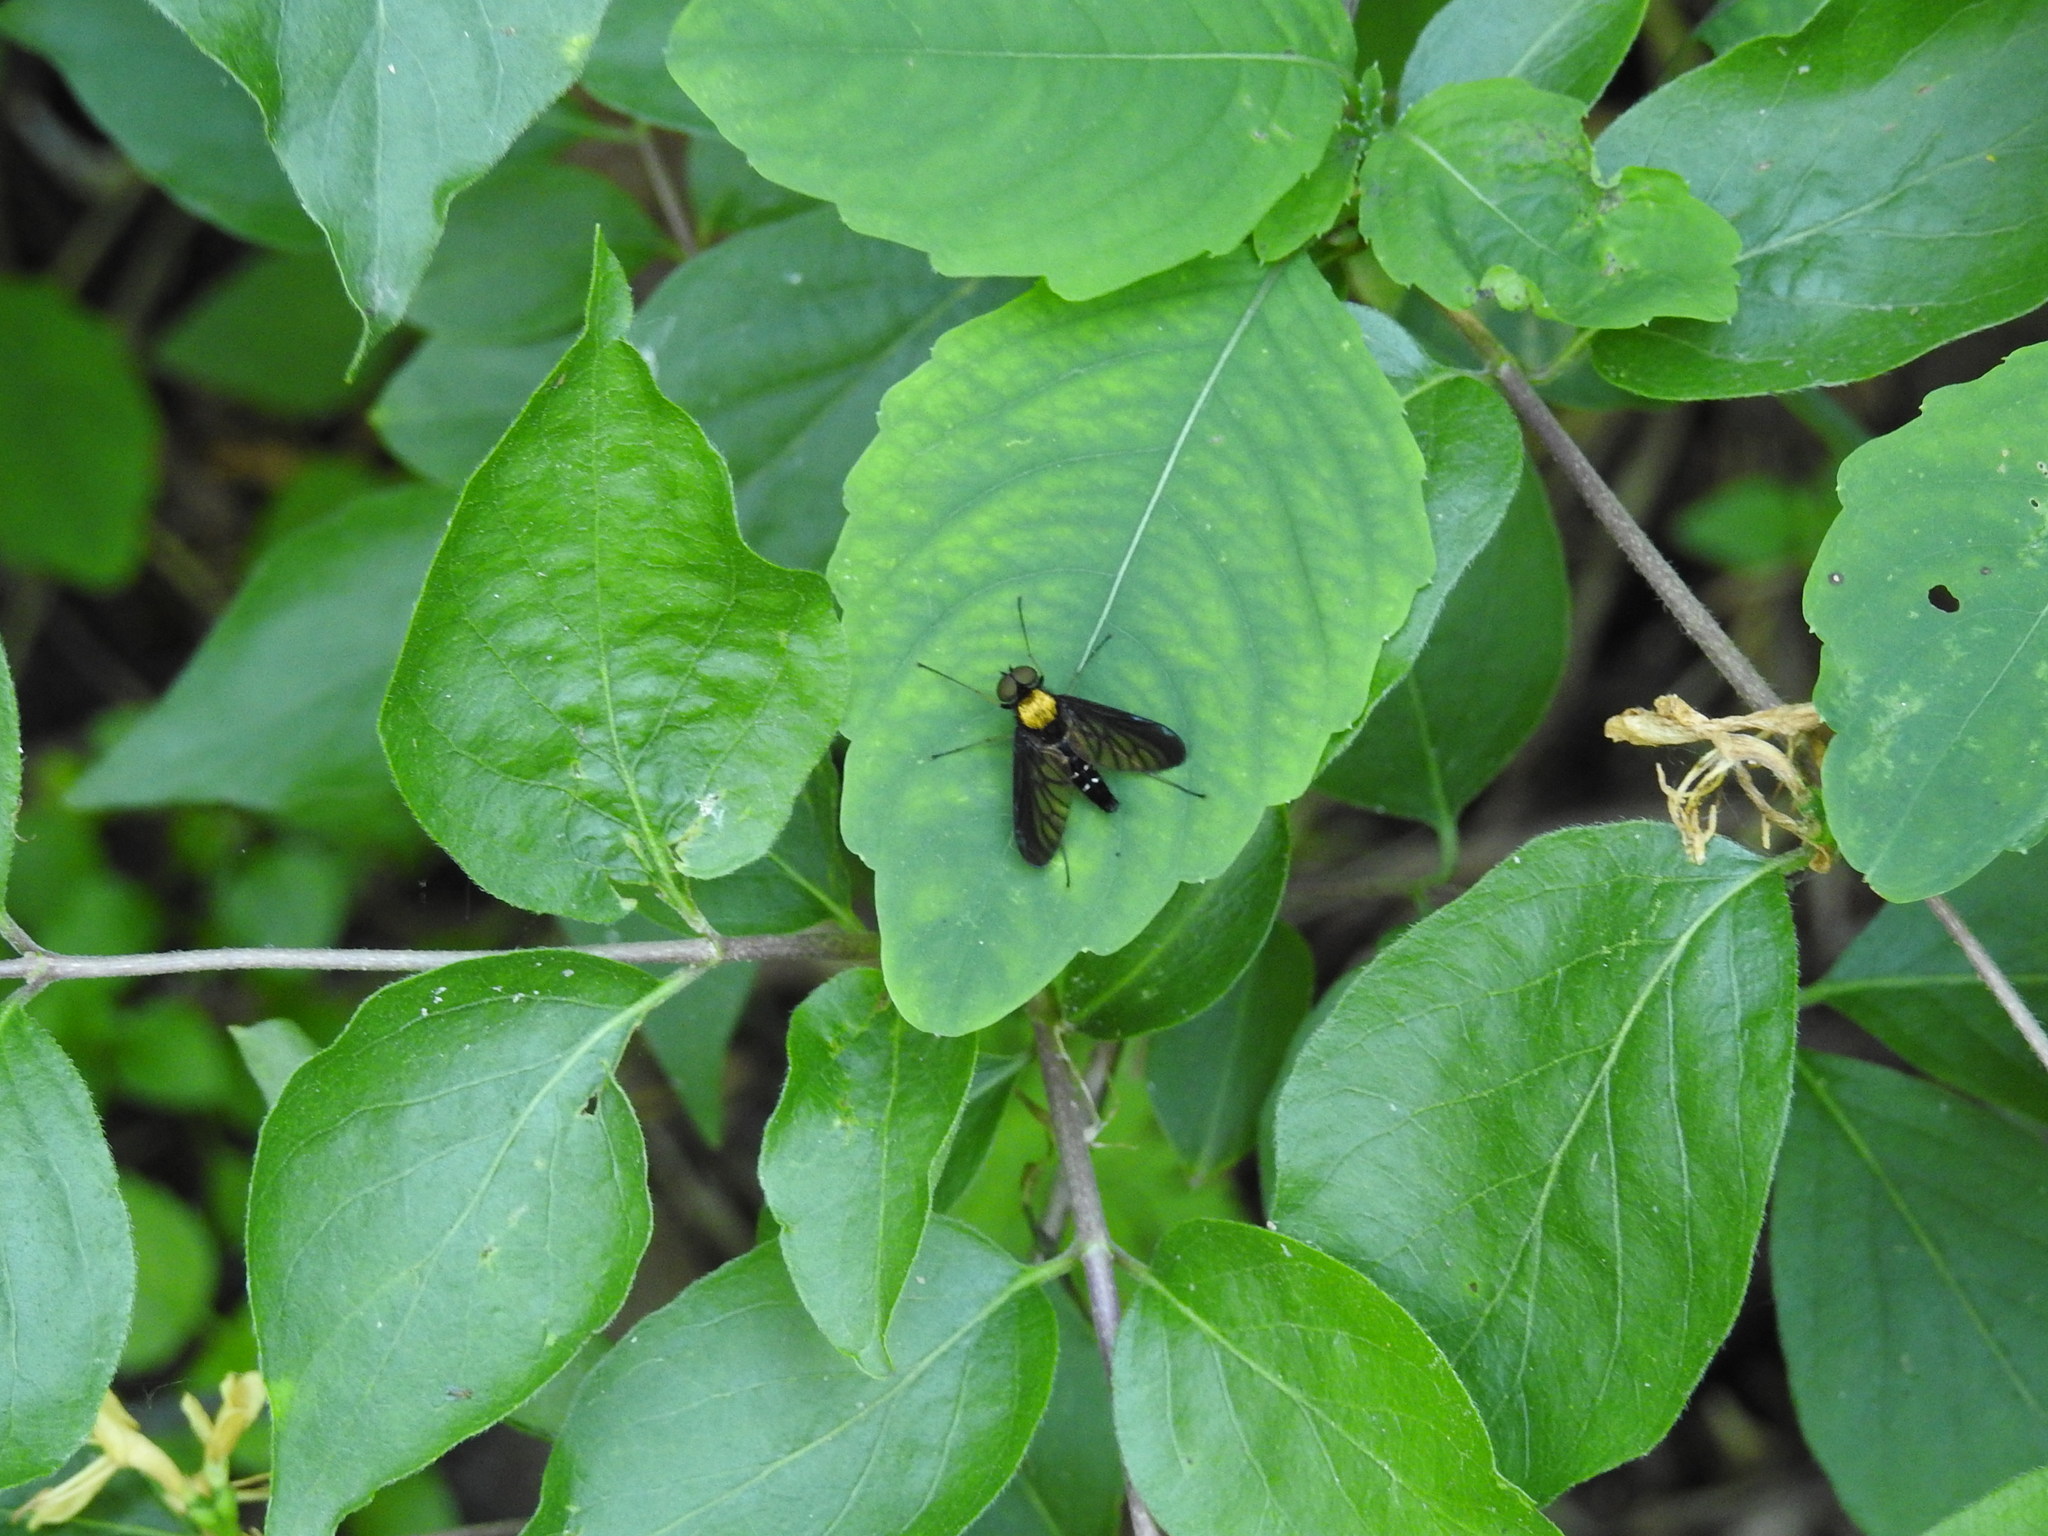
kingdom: Animalia
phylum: Arthropoda
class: Insecta
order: Diptera
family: Rhagionidae
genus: Chrysopilus
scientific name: Chrysopilus thoracicus
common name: Golden-backed snipe fly
